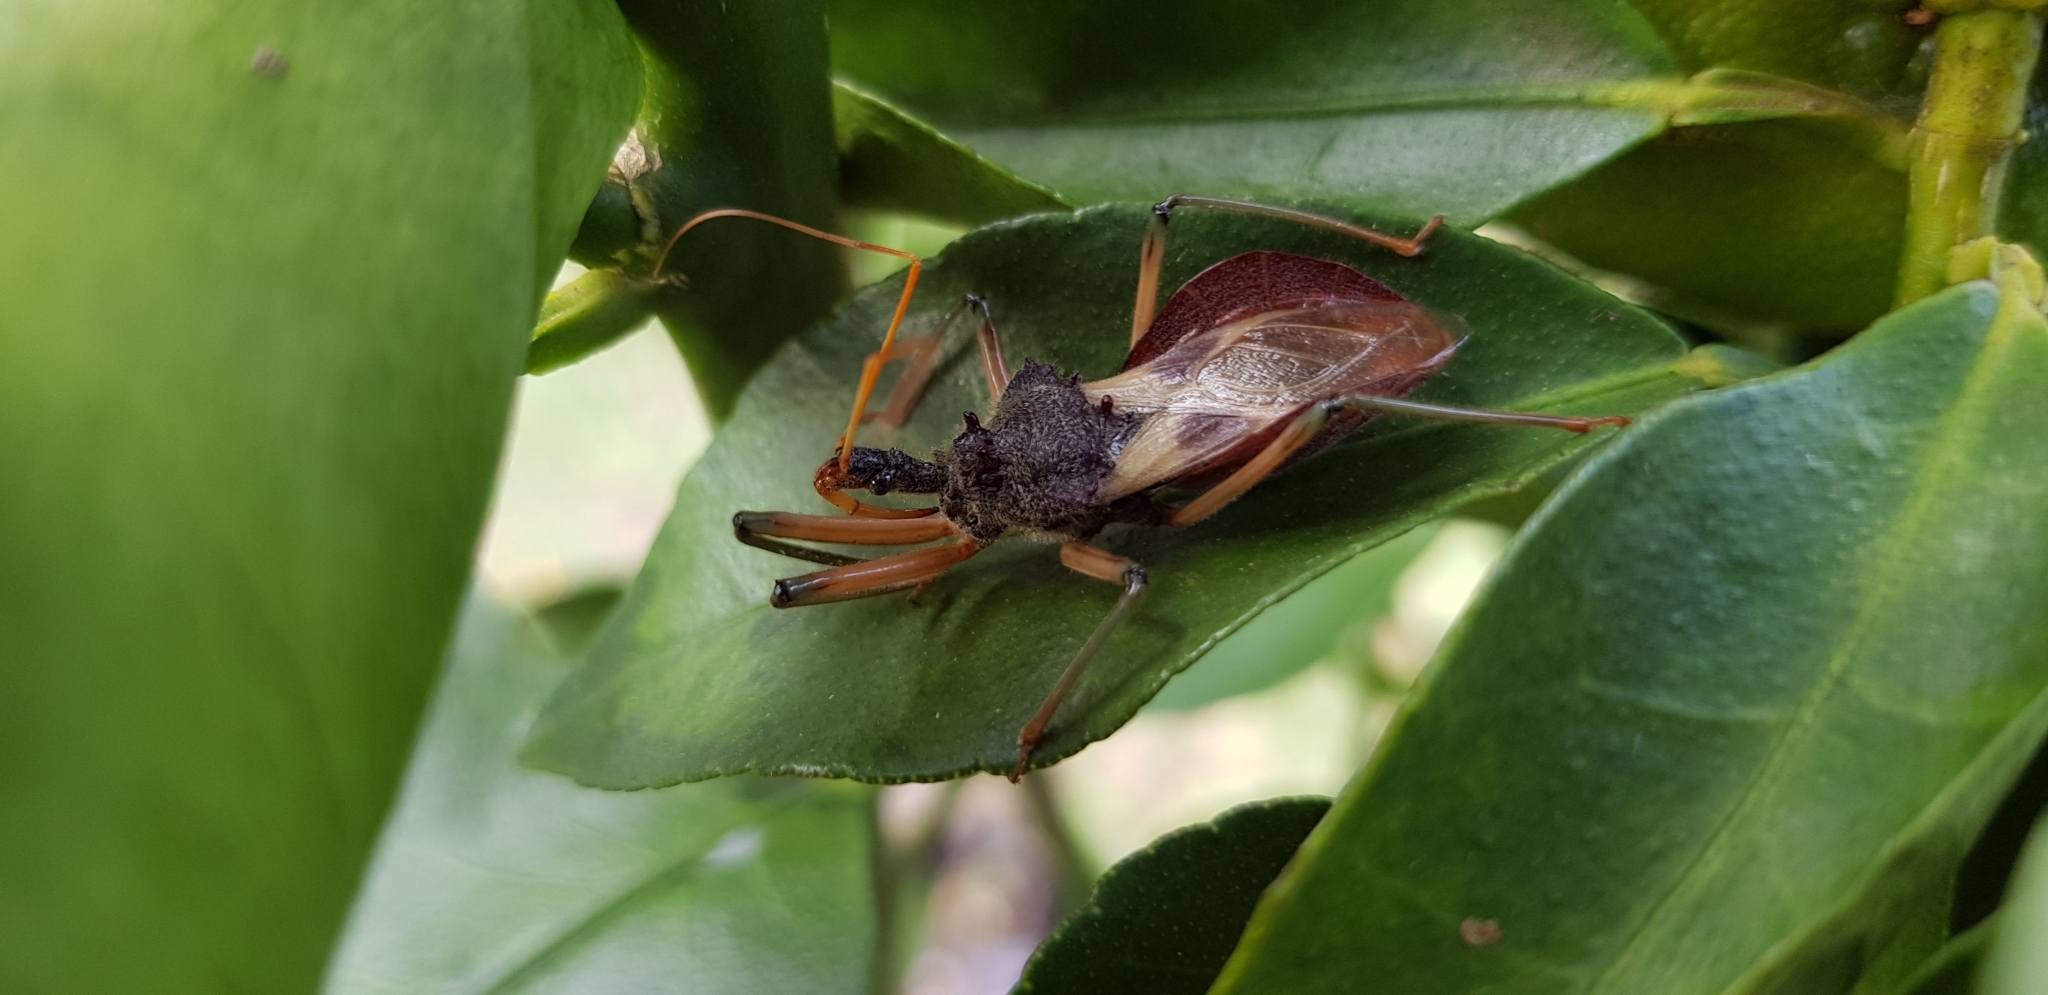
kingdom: Animalia
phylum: Arthropoda
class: Insecta
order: Hemiptera
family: Reduviidae
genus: Pristhesancus
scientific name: Pristhesancus plagipennis
